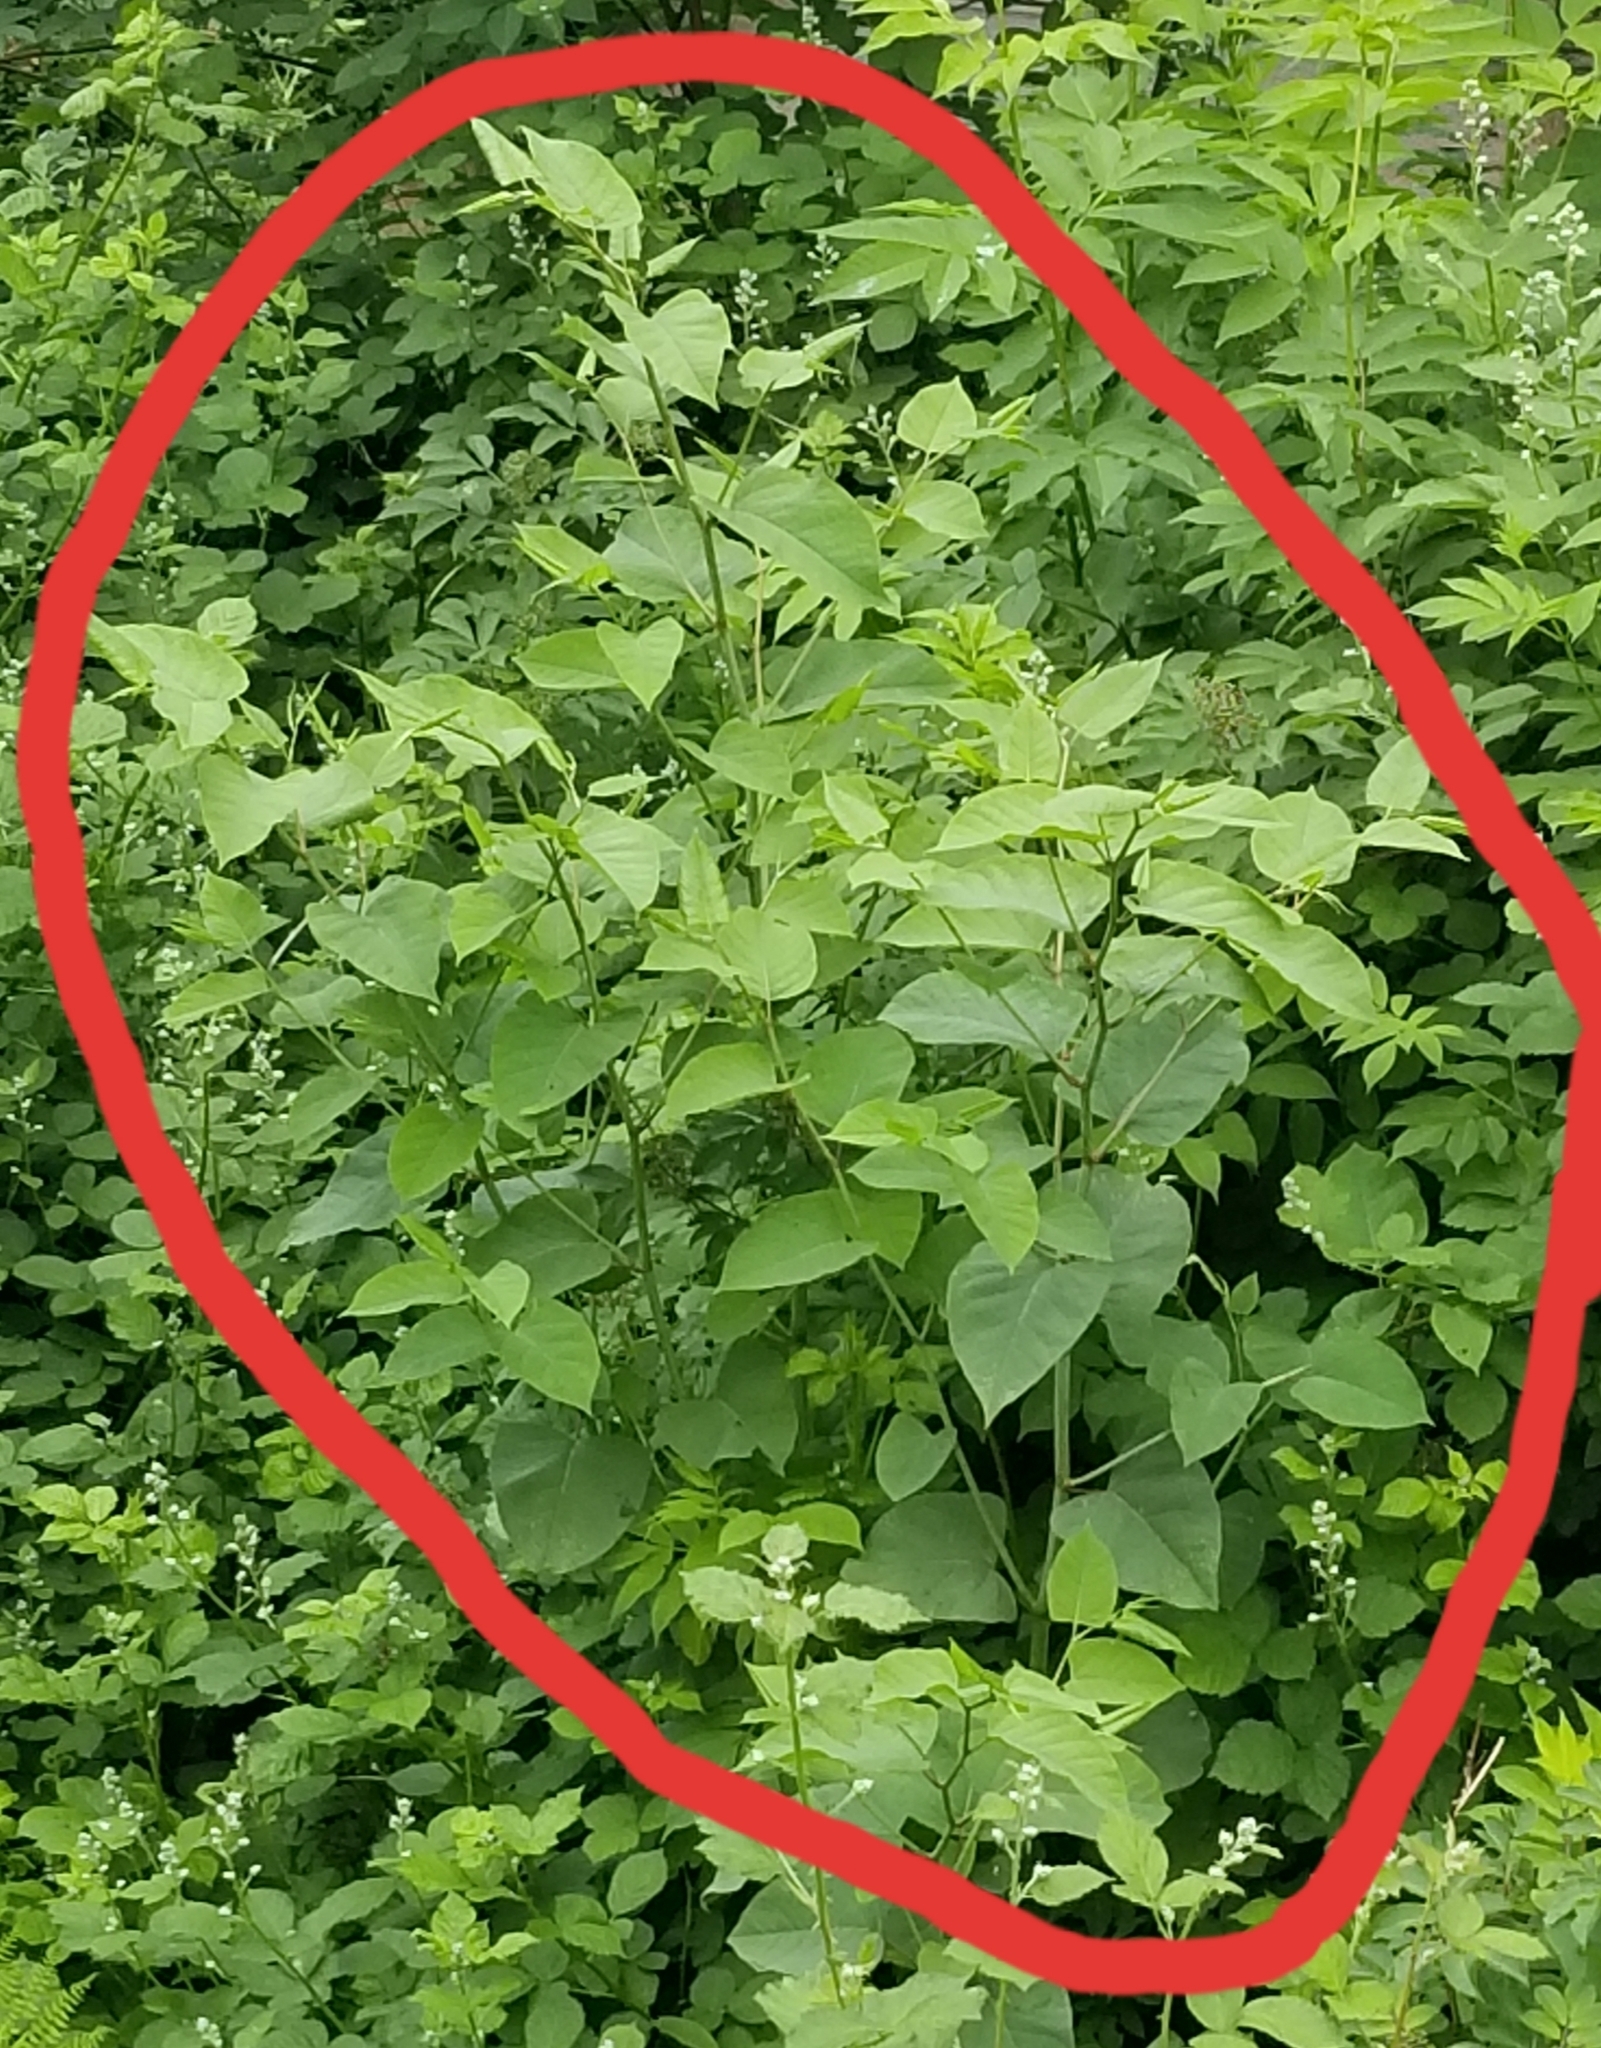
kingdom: Plantae
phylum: Tracheophyta
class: Magnoliopsida
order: Caryophyllales
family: Polygonaceae
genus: Reynoutria
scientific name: Reynoutria bohemica
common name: Bohemian knotweed
